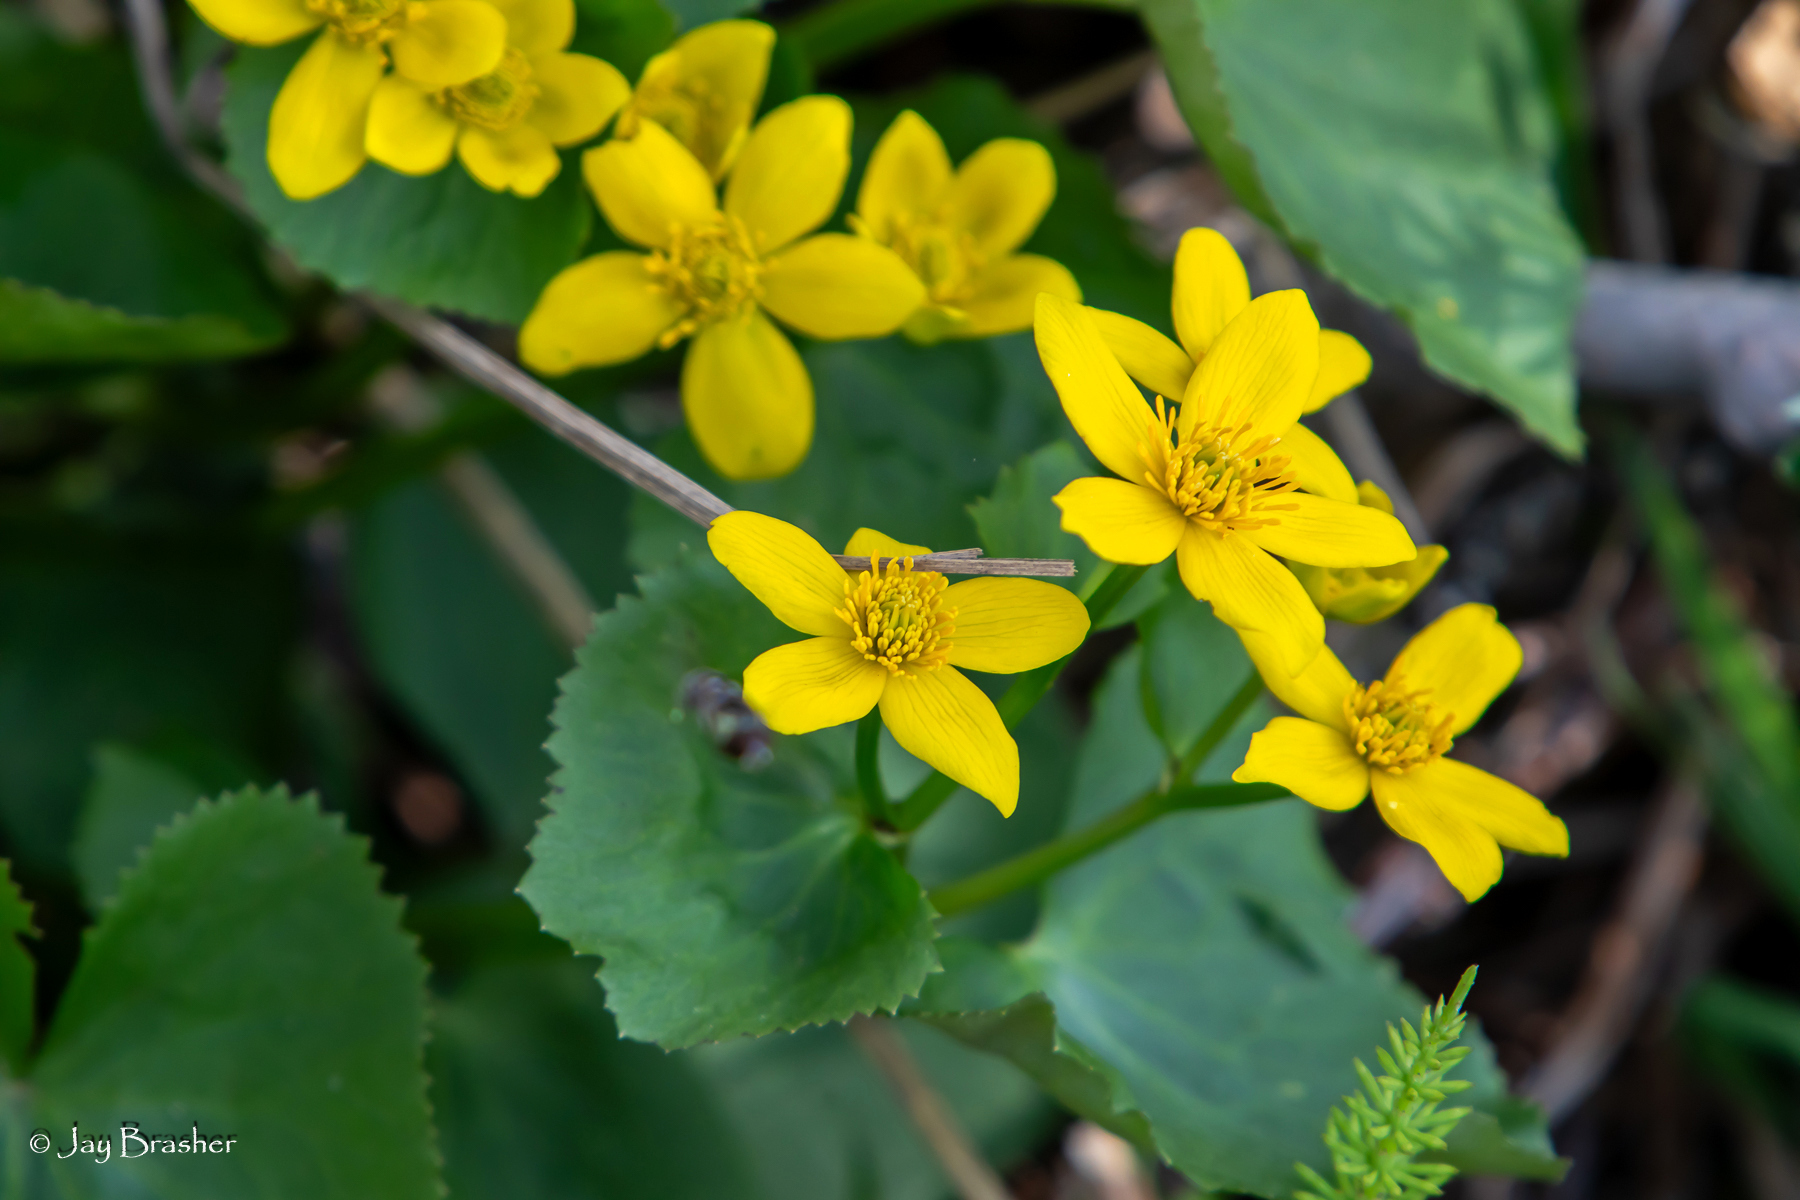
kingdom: Plantae
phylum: Tracheophyta
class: Magnoliopsida
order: Ranunculales
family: Ranunculaceae
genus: Caltha
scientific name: Caltha palustris
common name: Marsh marigold
